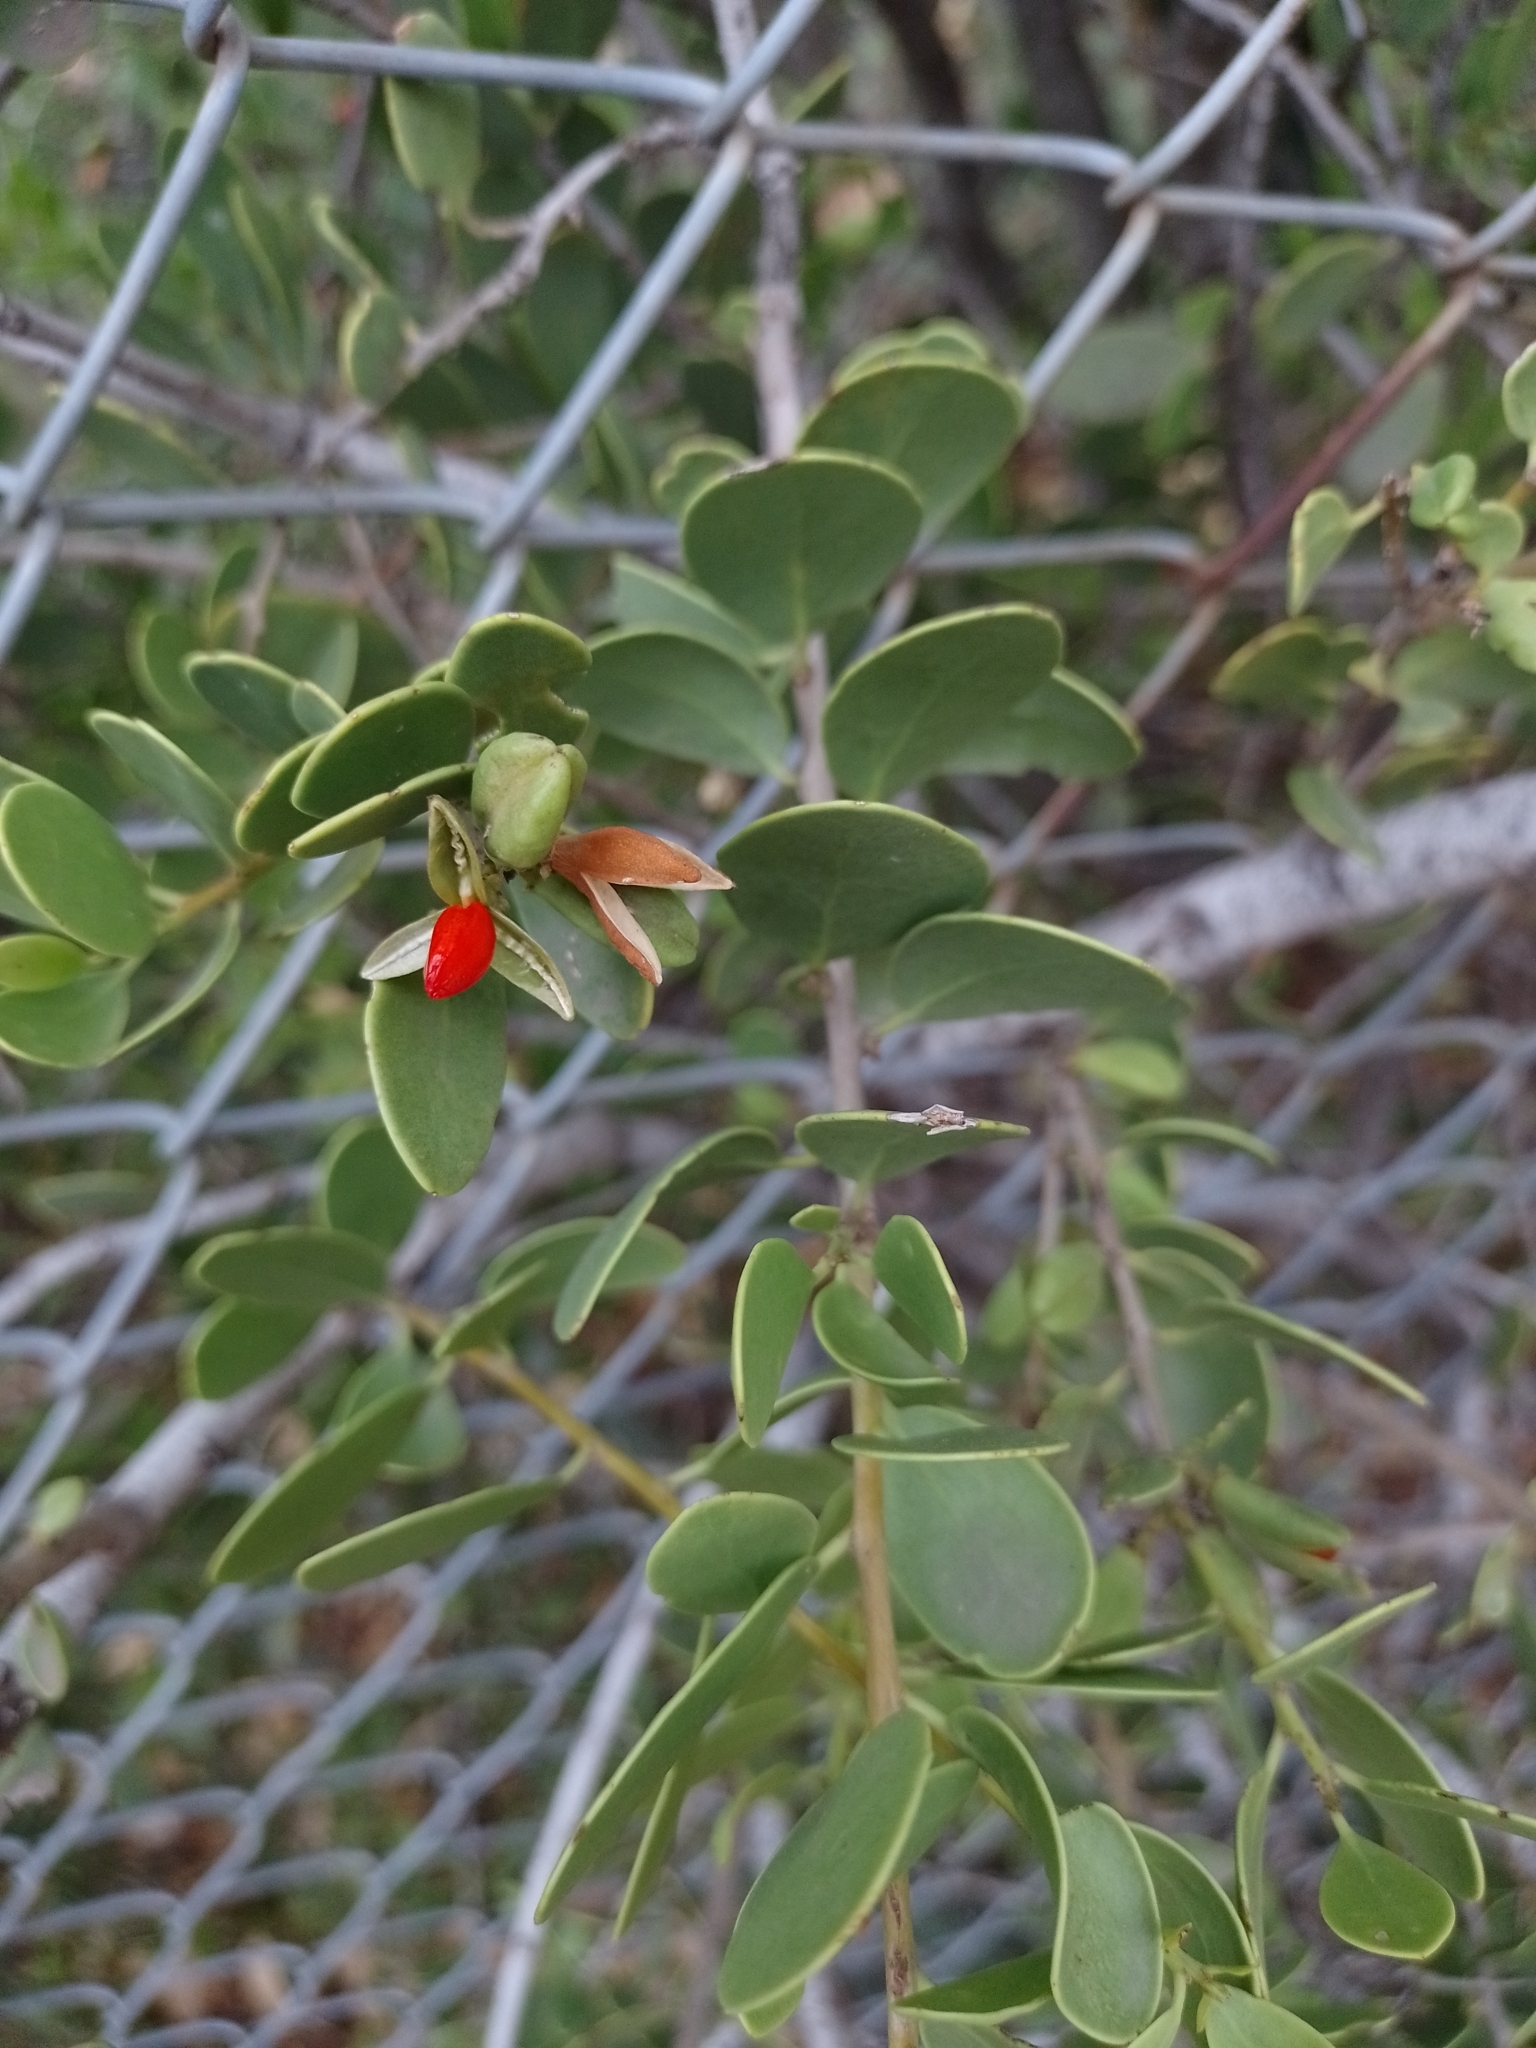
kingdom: Plantae
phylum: Tracheophyta
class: Magnoliopsida
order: Celastrales
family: Celastraceae
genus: Tricerma
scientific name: Tricerma vitis-idaeum
